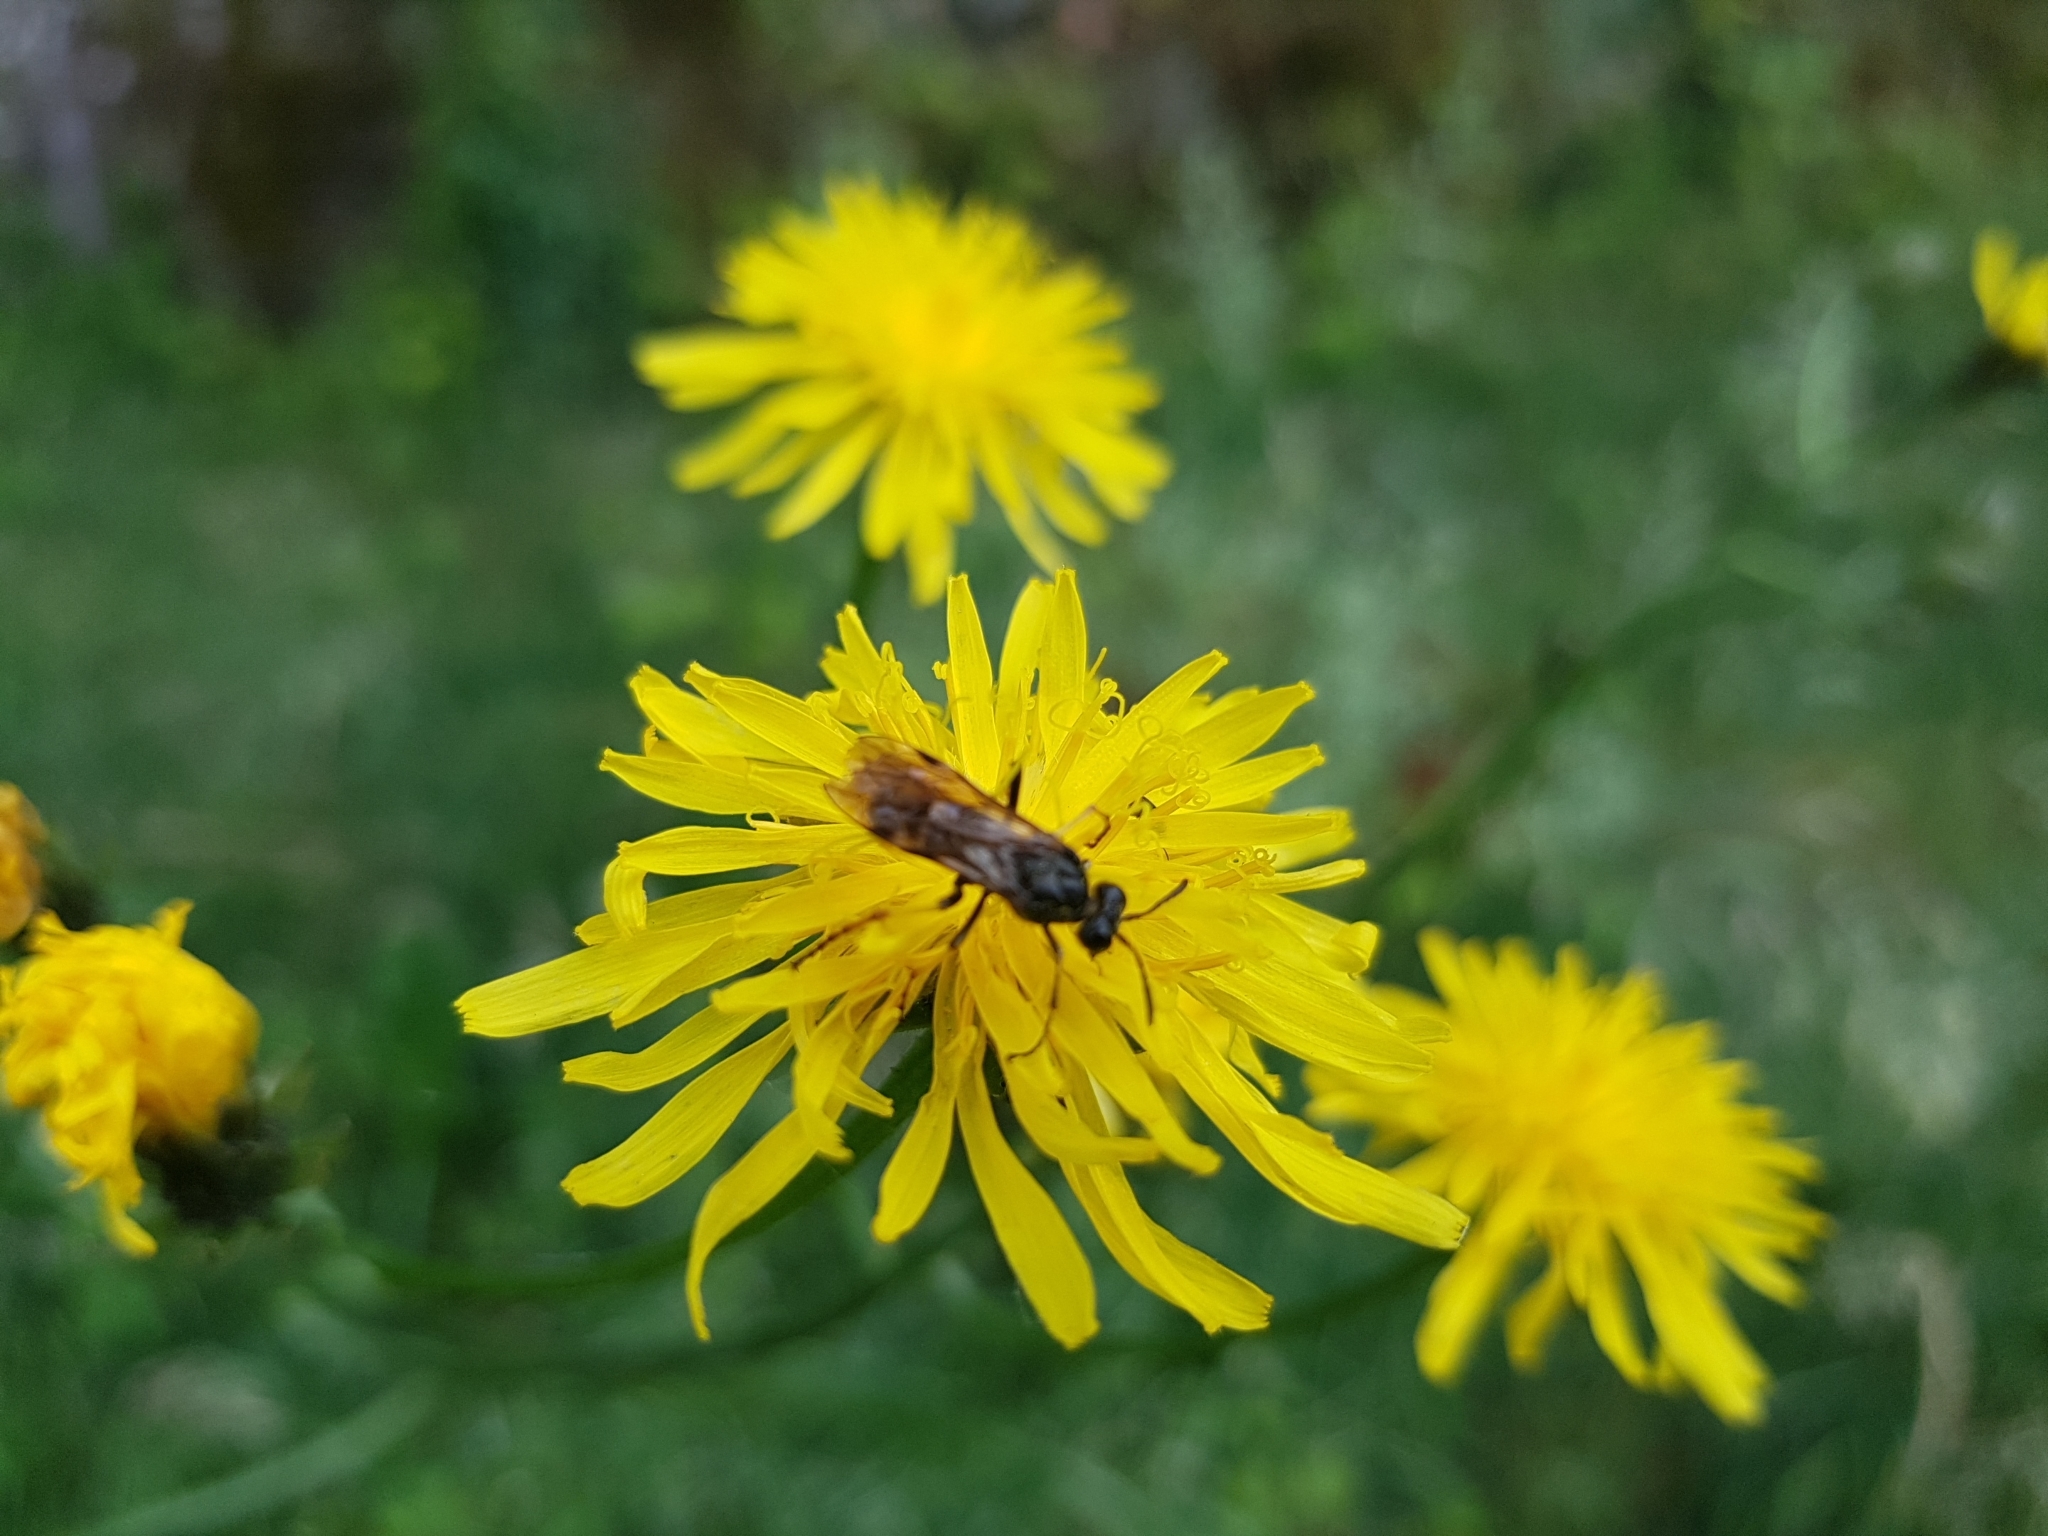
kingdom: Animalia
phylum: Arthropoda
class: Insecta
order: Hymenoptera
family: Tenthredinidae
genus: Tenthredo
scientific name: Tenthredo koehleri
